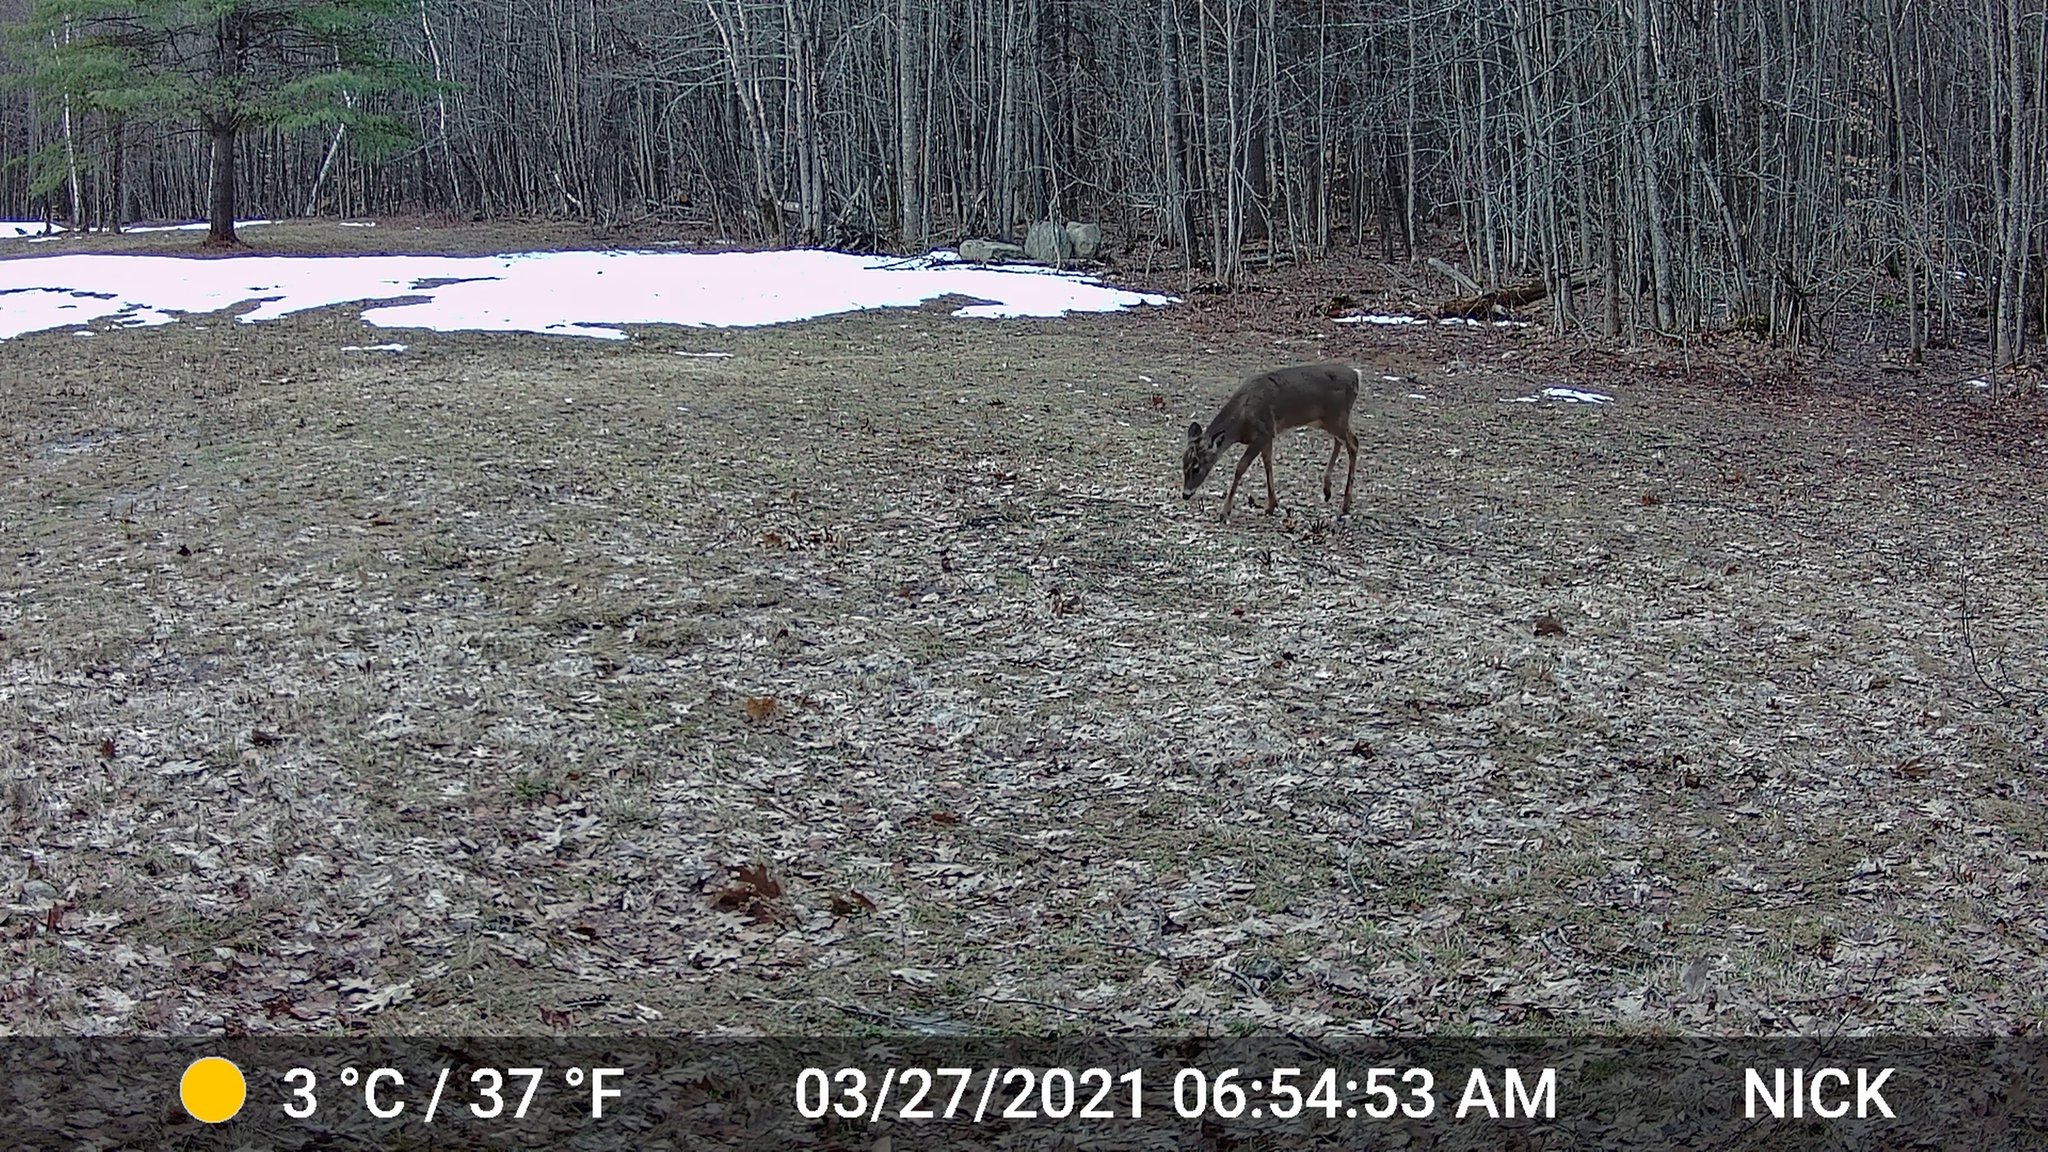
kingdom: Animalia
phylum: Chordata
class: Mammalia
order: Artiodactyla
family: Cervidae
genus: Odocoileus
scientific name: Odocoileus virginianus
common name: White-tailed deer
